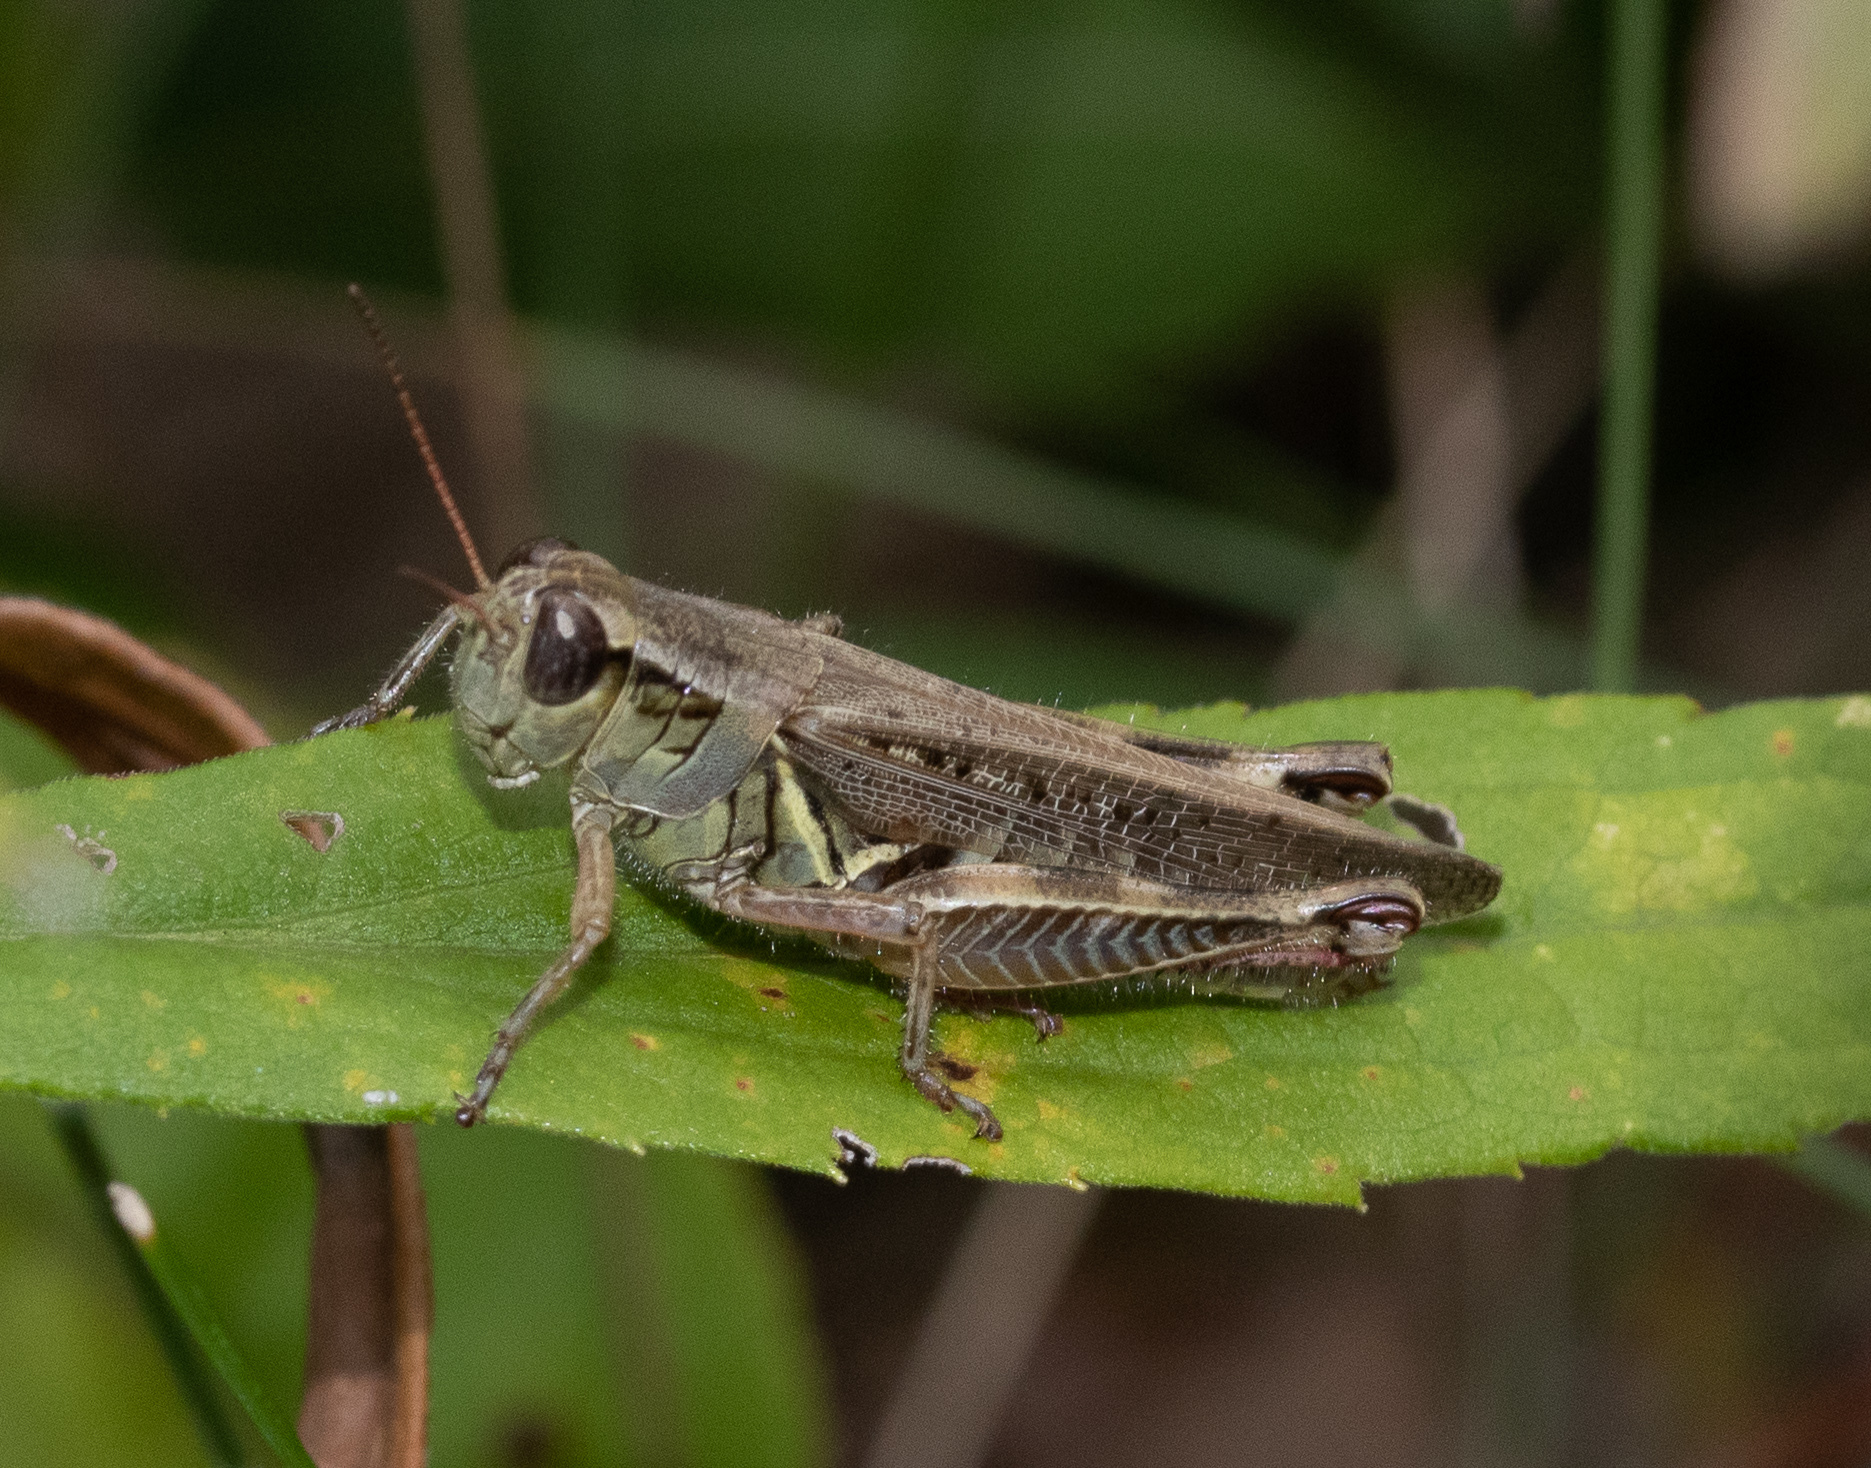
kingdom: Animalia
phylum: Arthropoda
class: Insecta
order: Orthoptera
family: Acrididae
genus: Melanoplus
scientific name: Melanoplus femurrubrum
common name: Red-legged grasshopper
